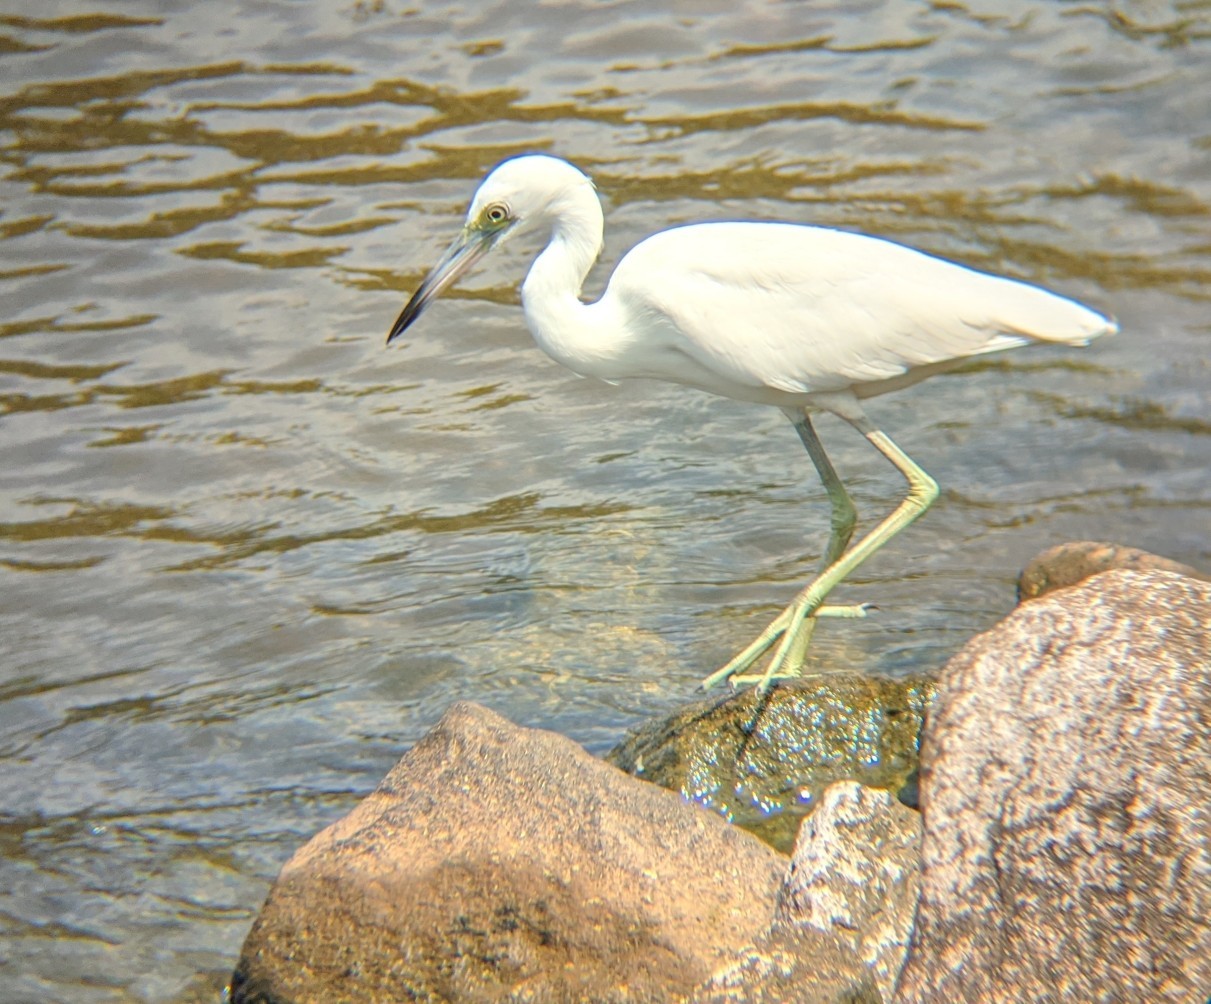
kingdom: Animalia
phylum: Chordata
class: Aves
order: Pelecaniformes
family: Ardeidae
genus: Egretta
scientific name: Egretta caerulea
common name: Little blue heron
